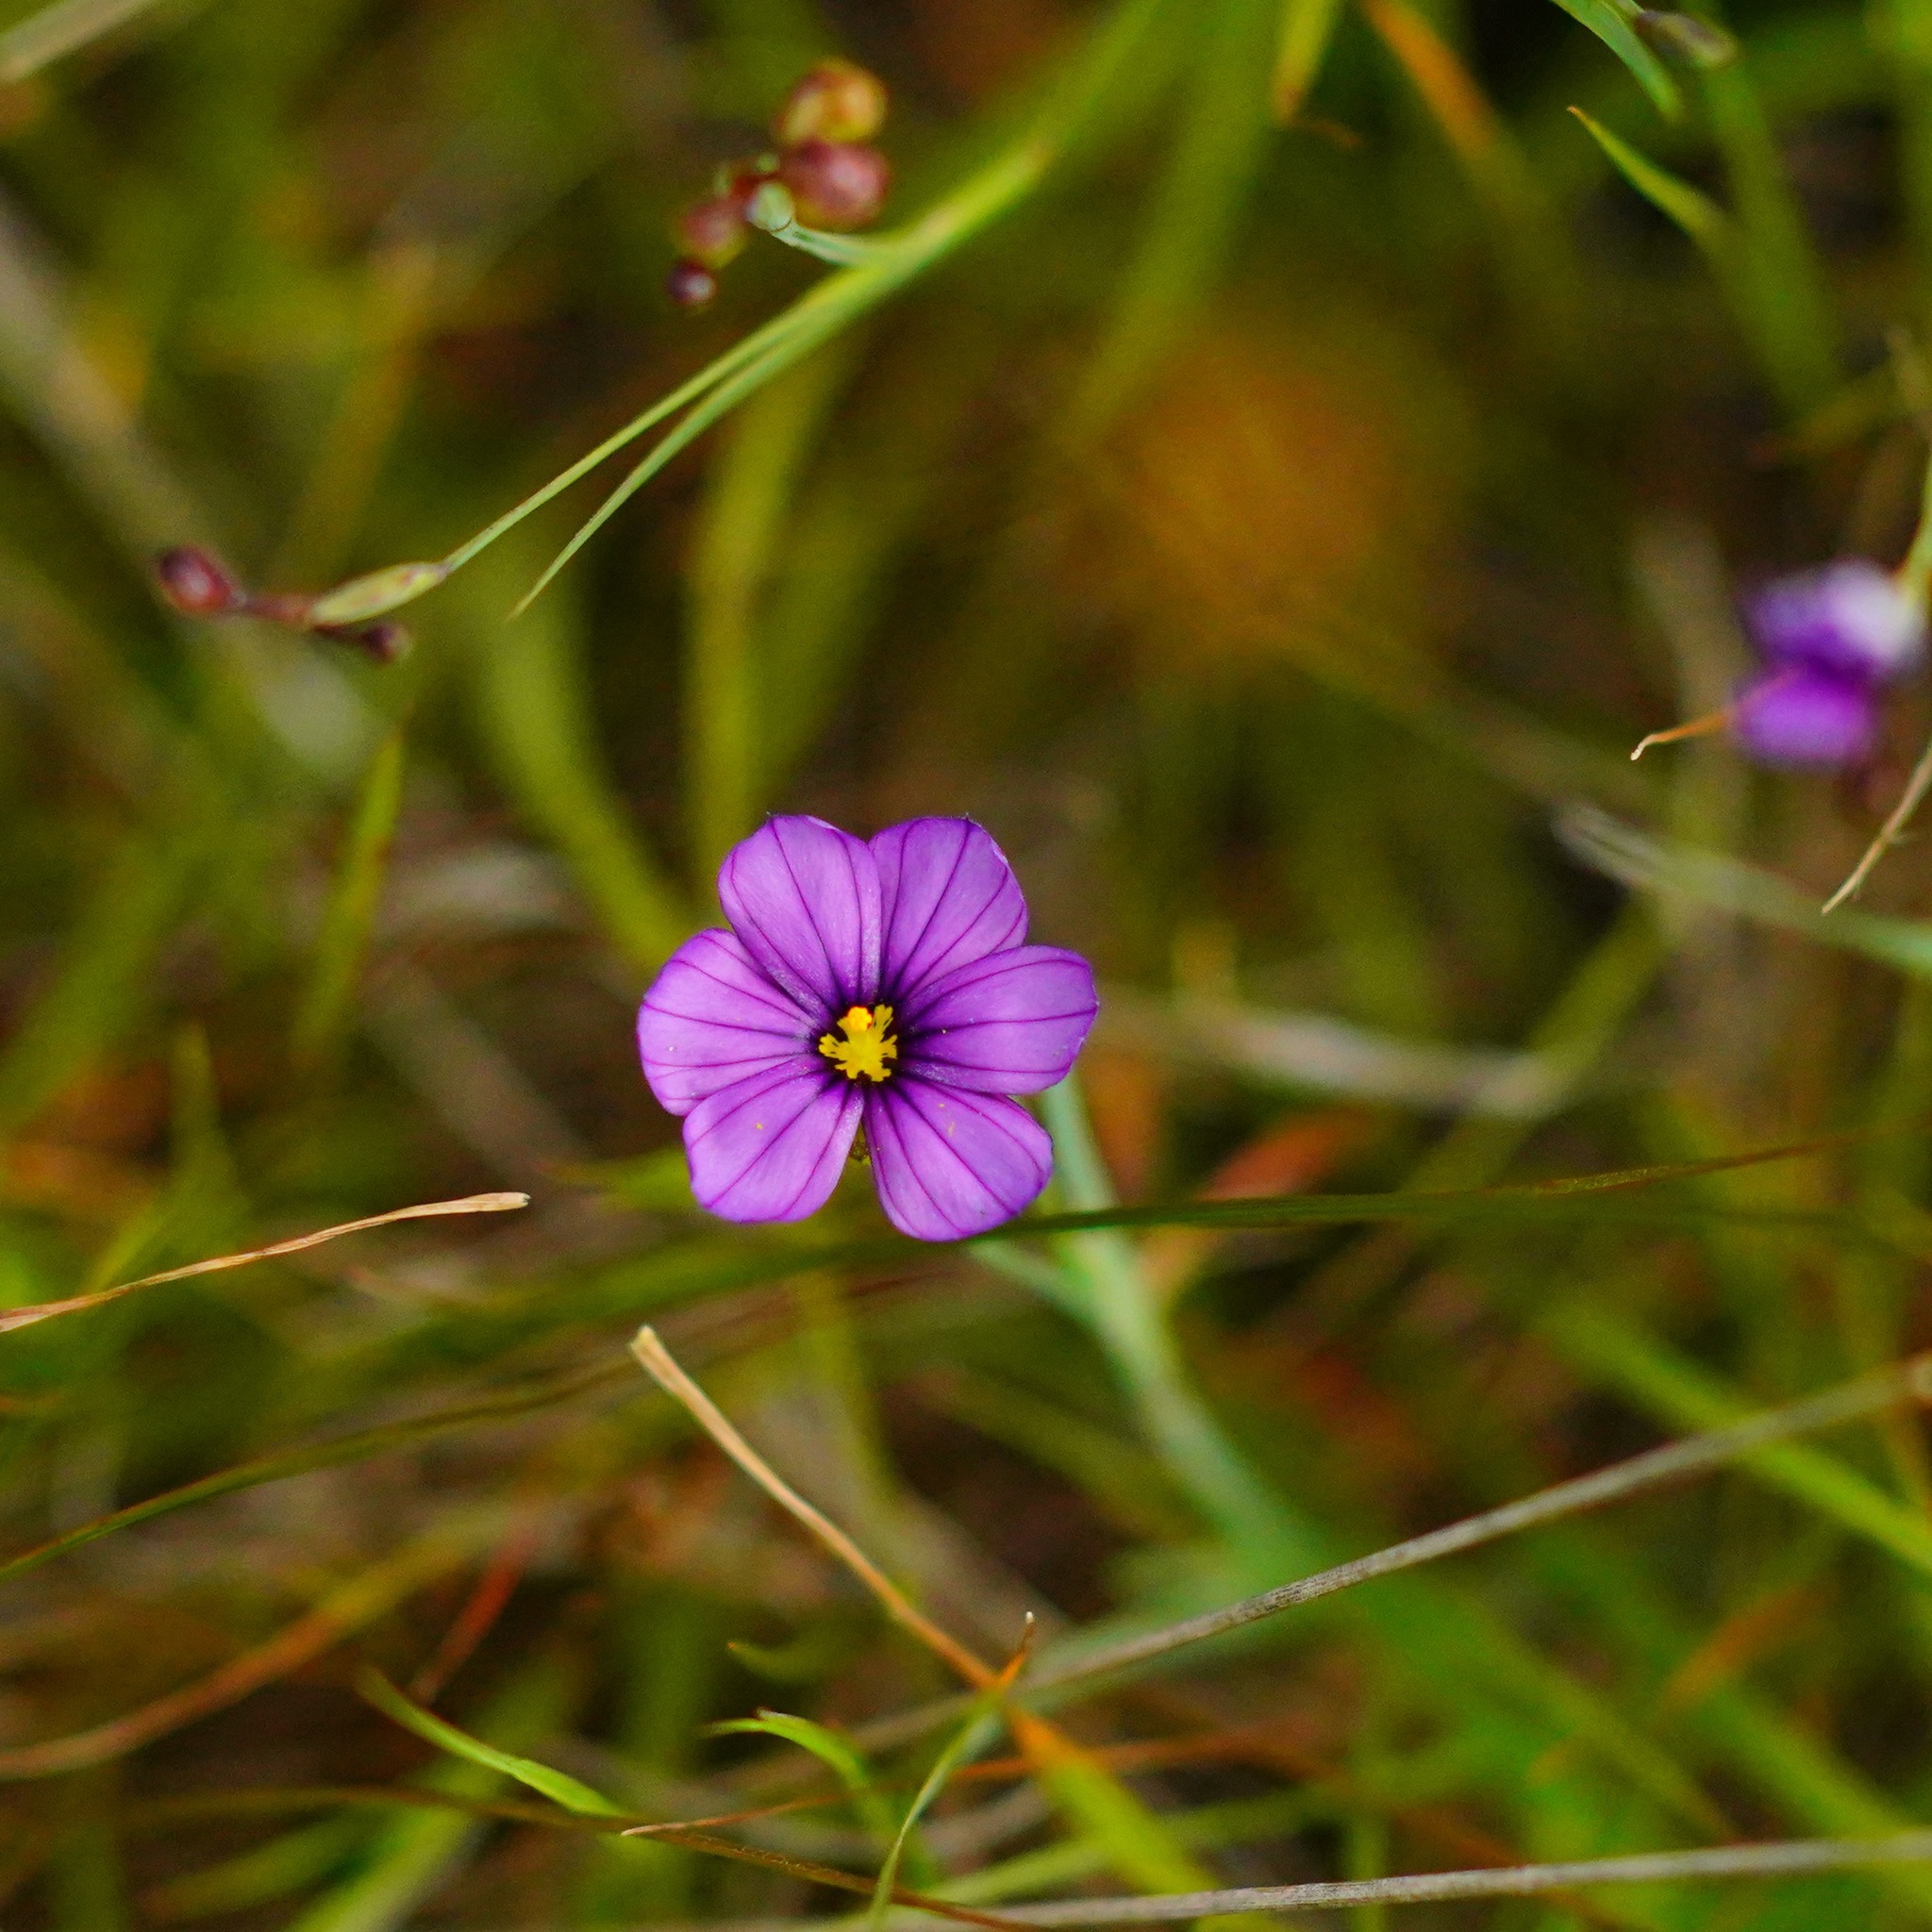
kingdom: Plantae
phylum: Tracheophyta
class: Liliopsida
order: Asparagales
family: Iridaceae
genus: Sisyrinchium
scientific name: Sisyrinchium bellum
